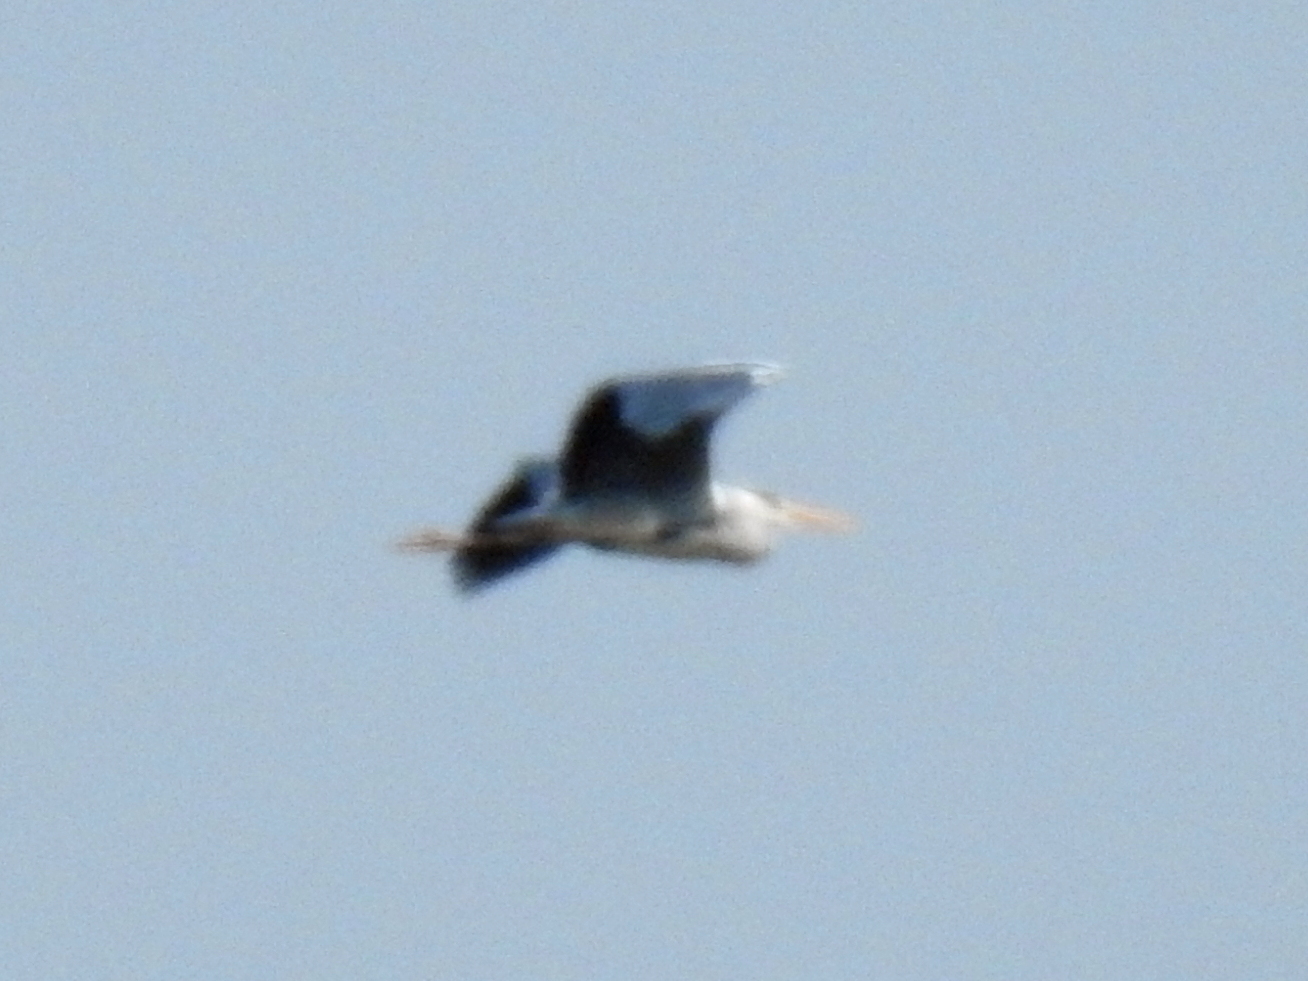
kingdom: Animalia
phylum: Chordata
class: Aves
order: Pelecaniformes
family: Ardeidae
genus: Ardea
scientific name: Ardea cinerea
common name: Grey heron
